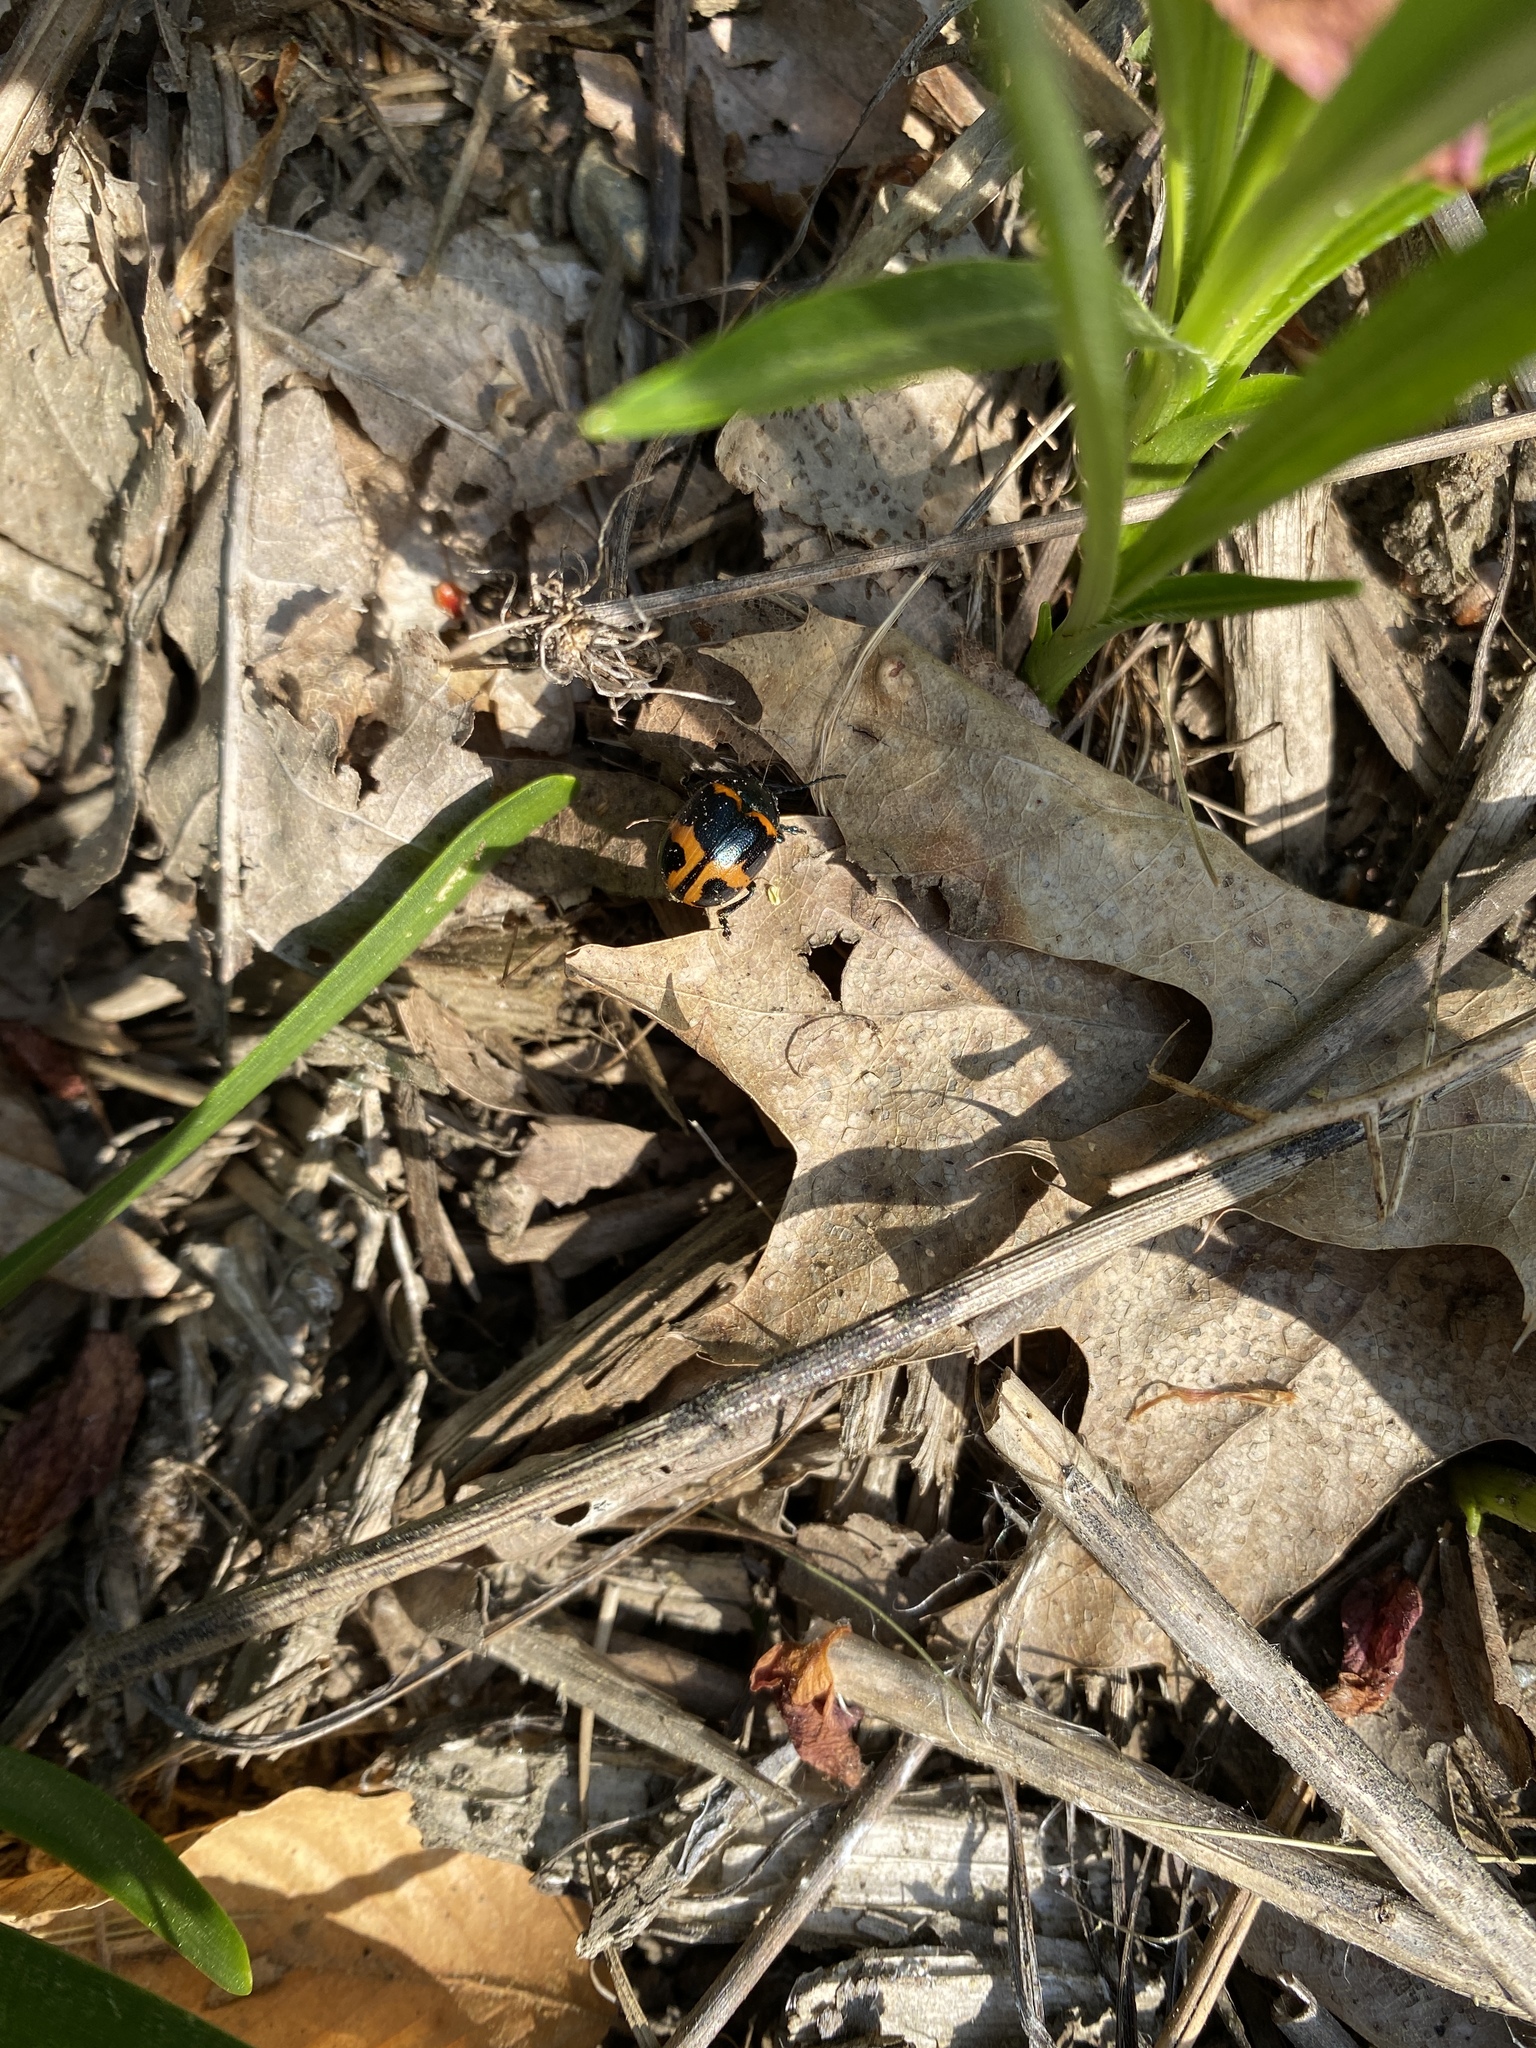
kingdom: Animalia
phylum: Arthropoda
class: Insecta
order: Coleoptera
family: Chrysomelidae
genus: Labidomera
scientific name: Labidomera clivicollis
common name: Swamp milkweed leaf beetle
